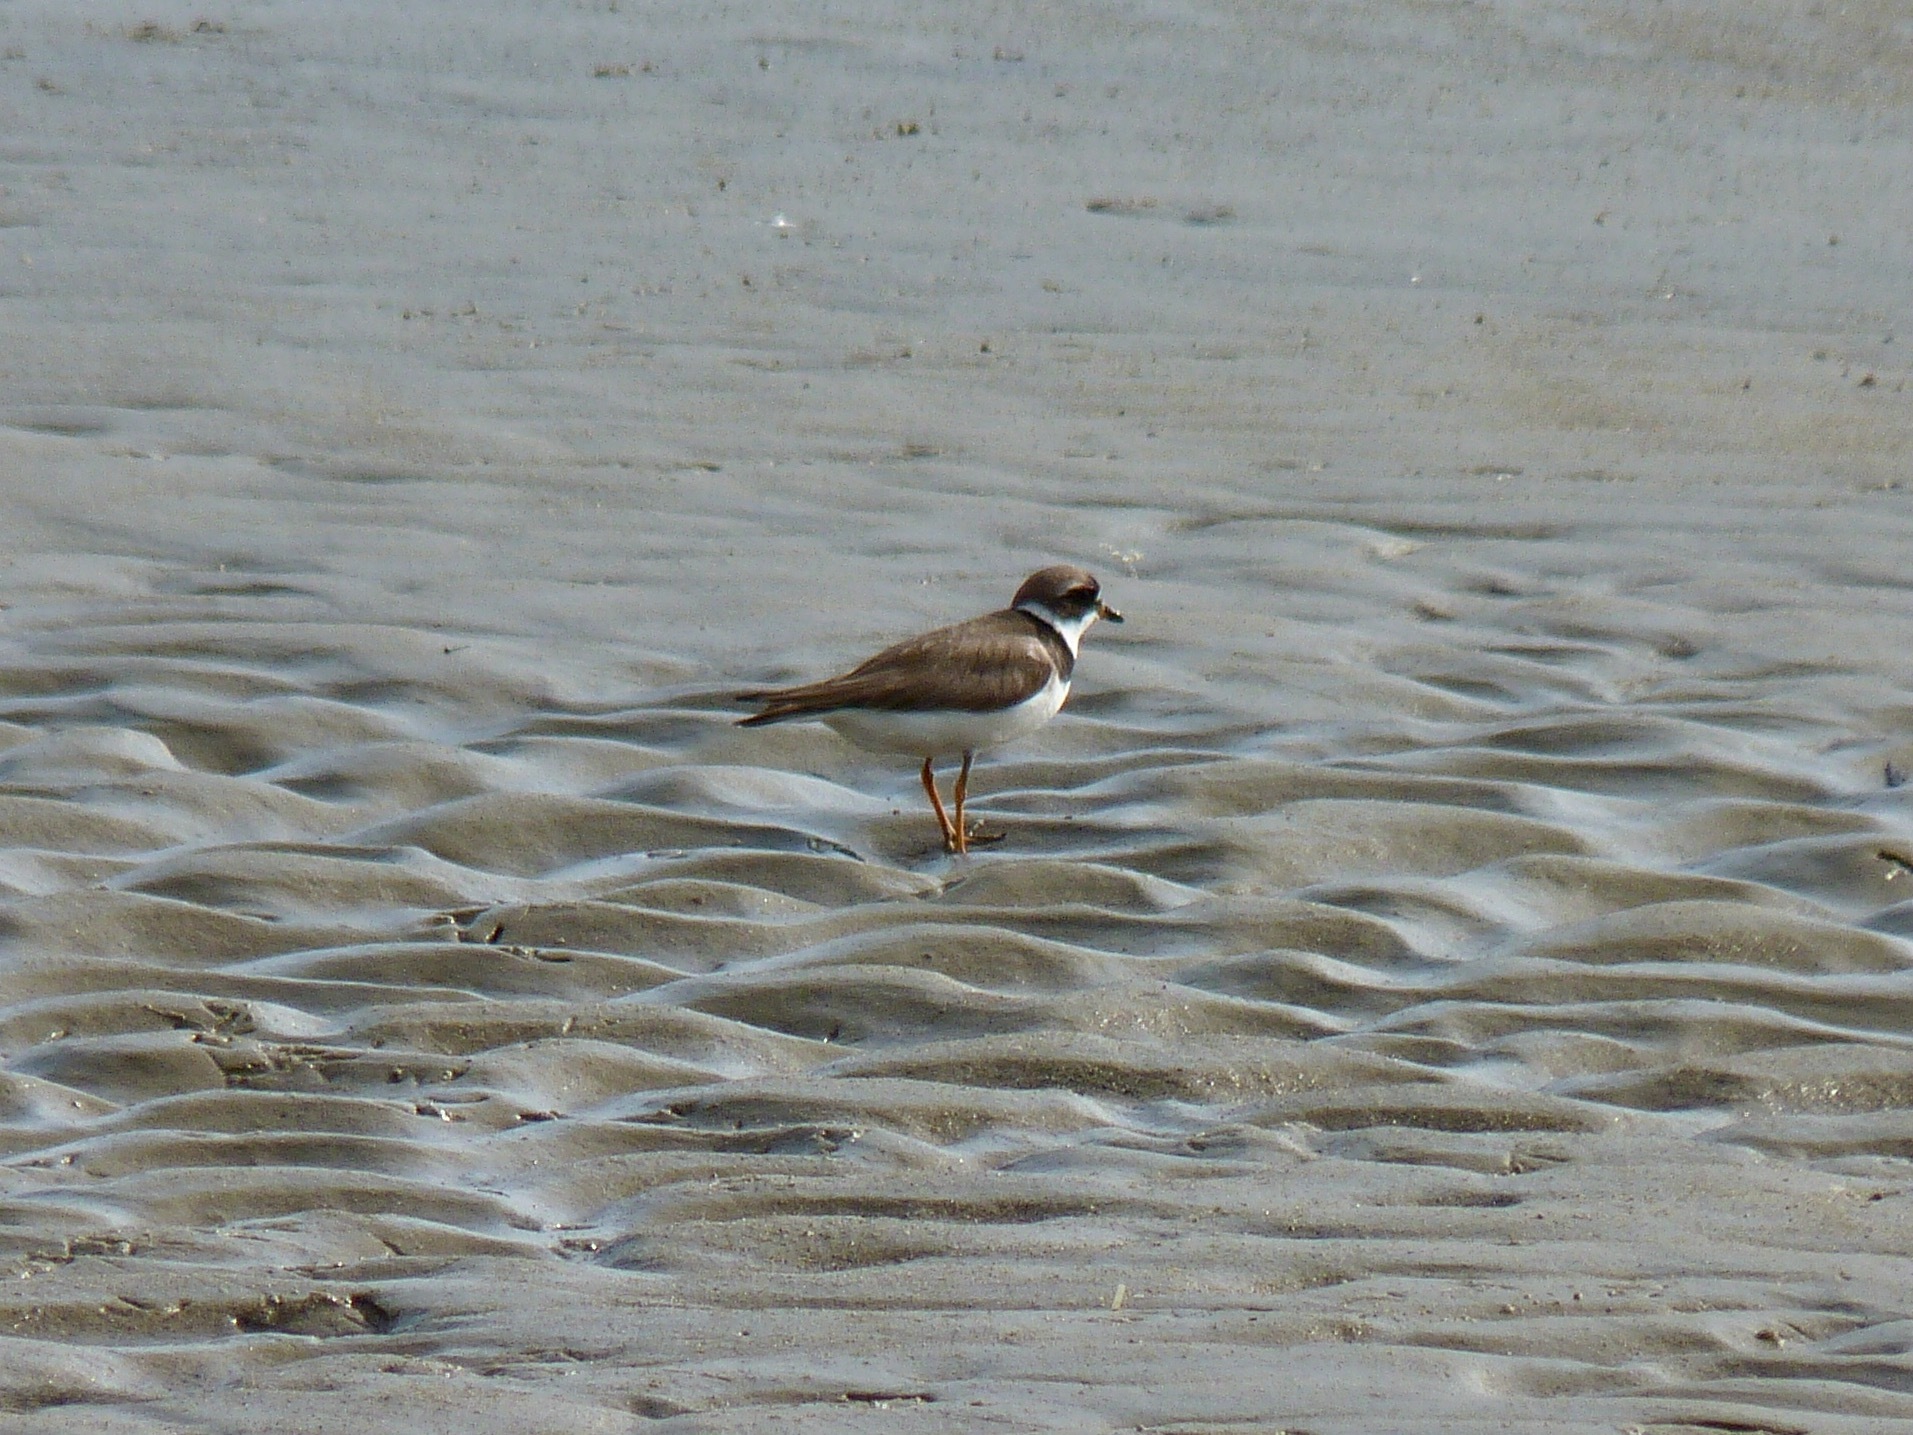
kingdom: Animalia
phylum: Chordata
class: Aves
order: Charadriiformes
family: Charadriidae
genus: Charadrius
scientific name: Charadrius semipalmatus
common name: Semipalmated plover
